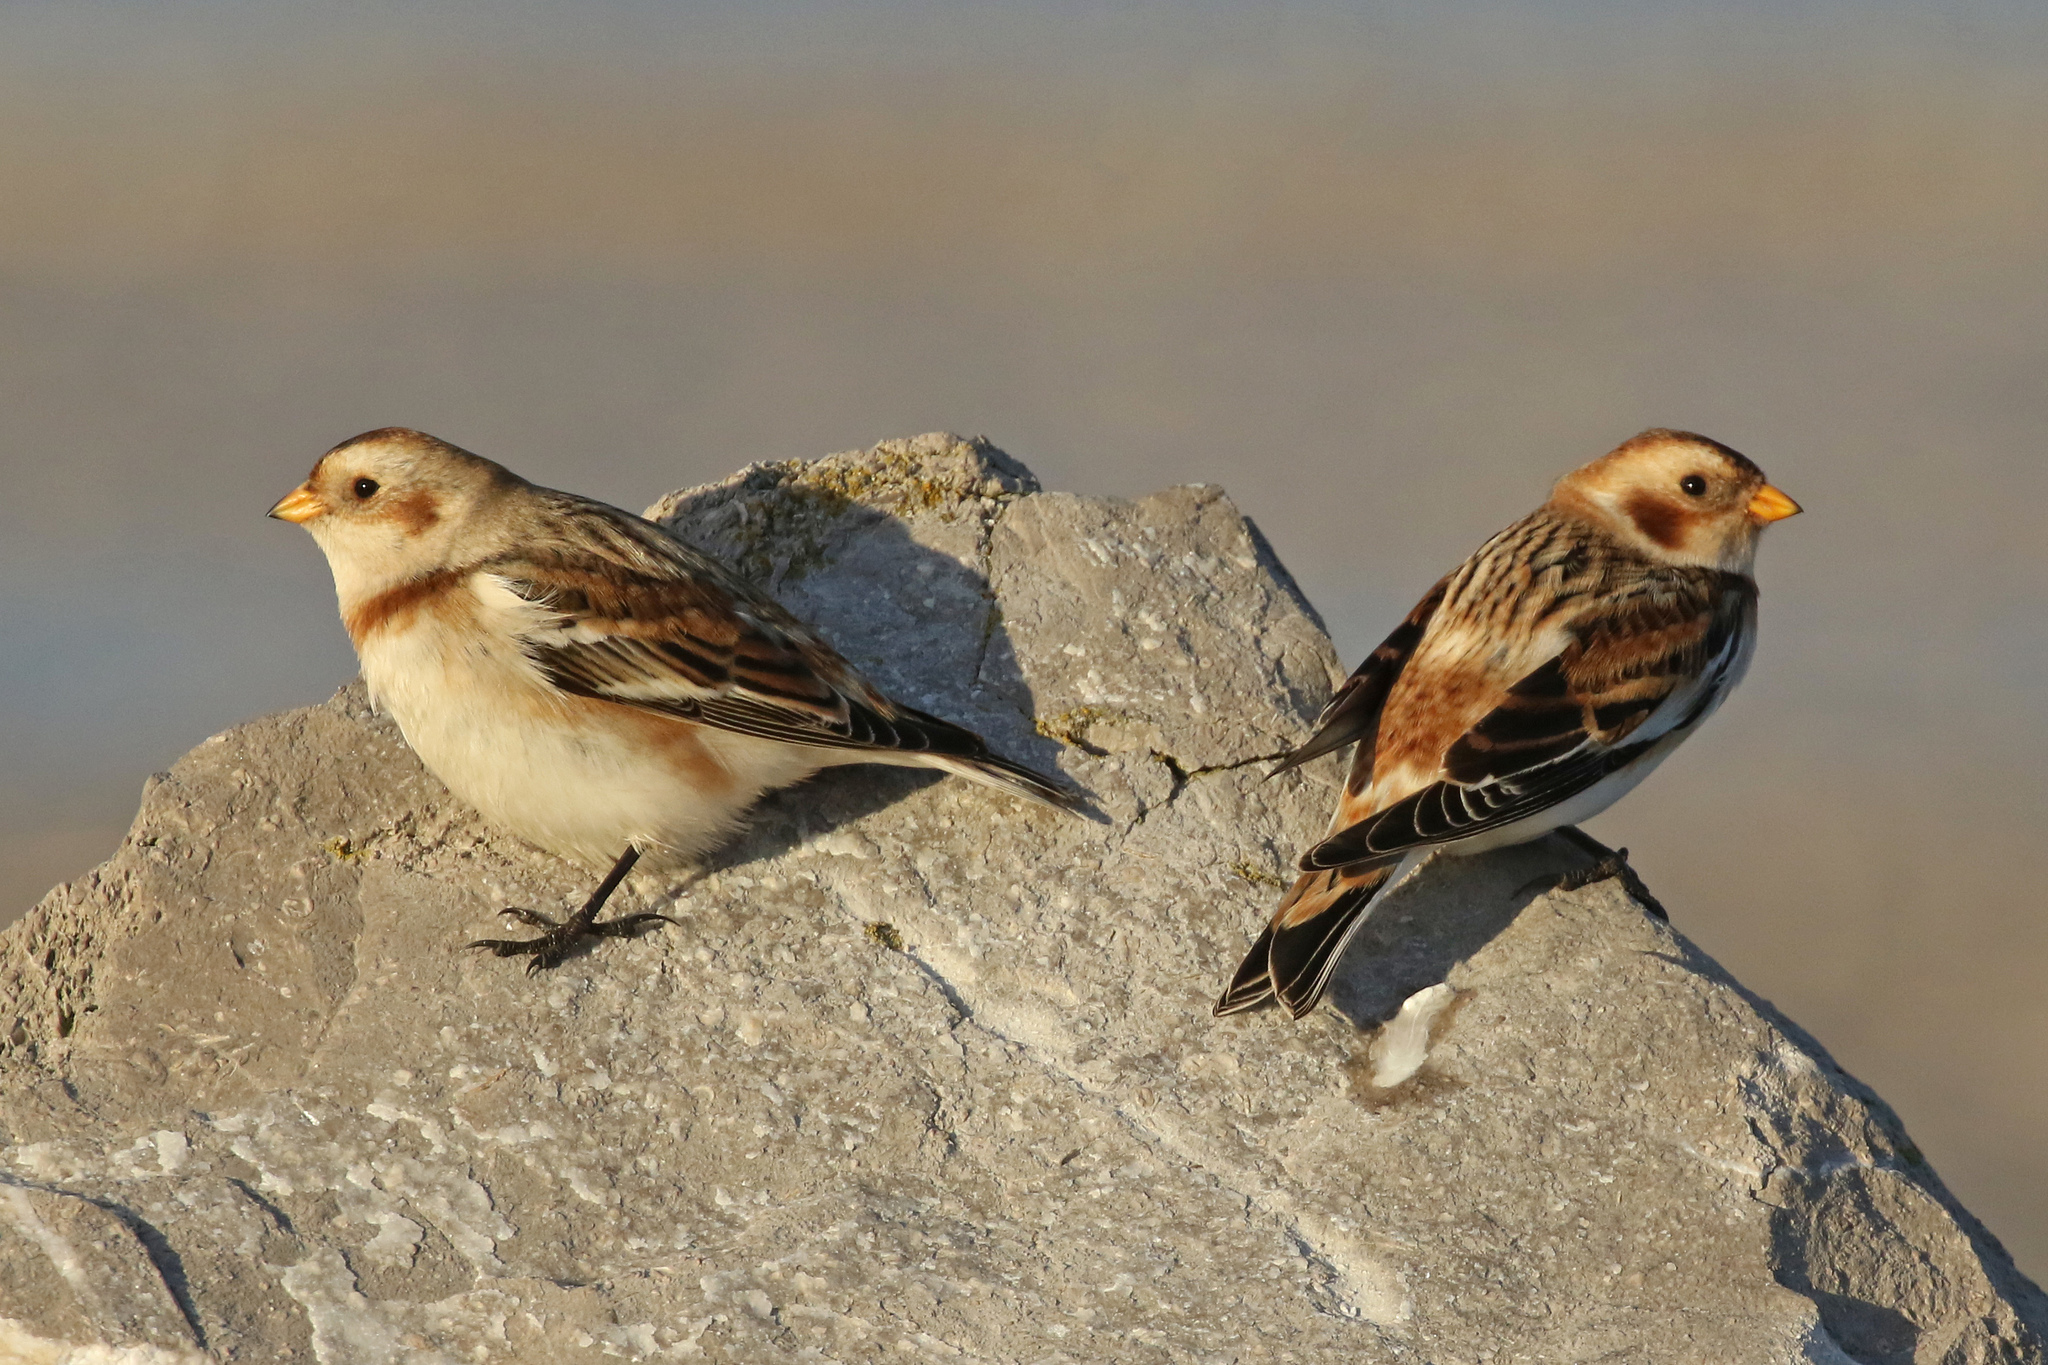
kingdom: Animalia
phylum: Chordata
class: Aves
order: Passeriformes
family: Calcariidae
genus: Plectrophenax
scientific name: Plectrophenax nivalis
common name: Snow bunting
